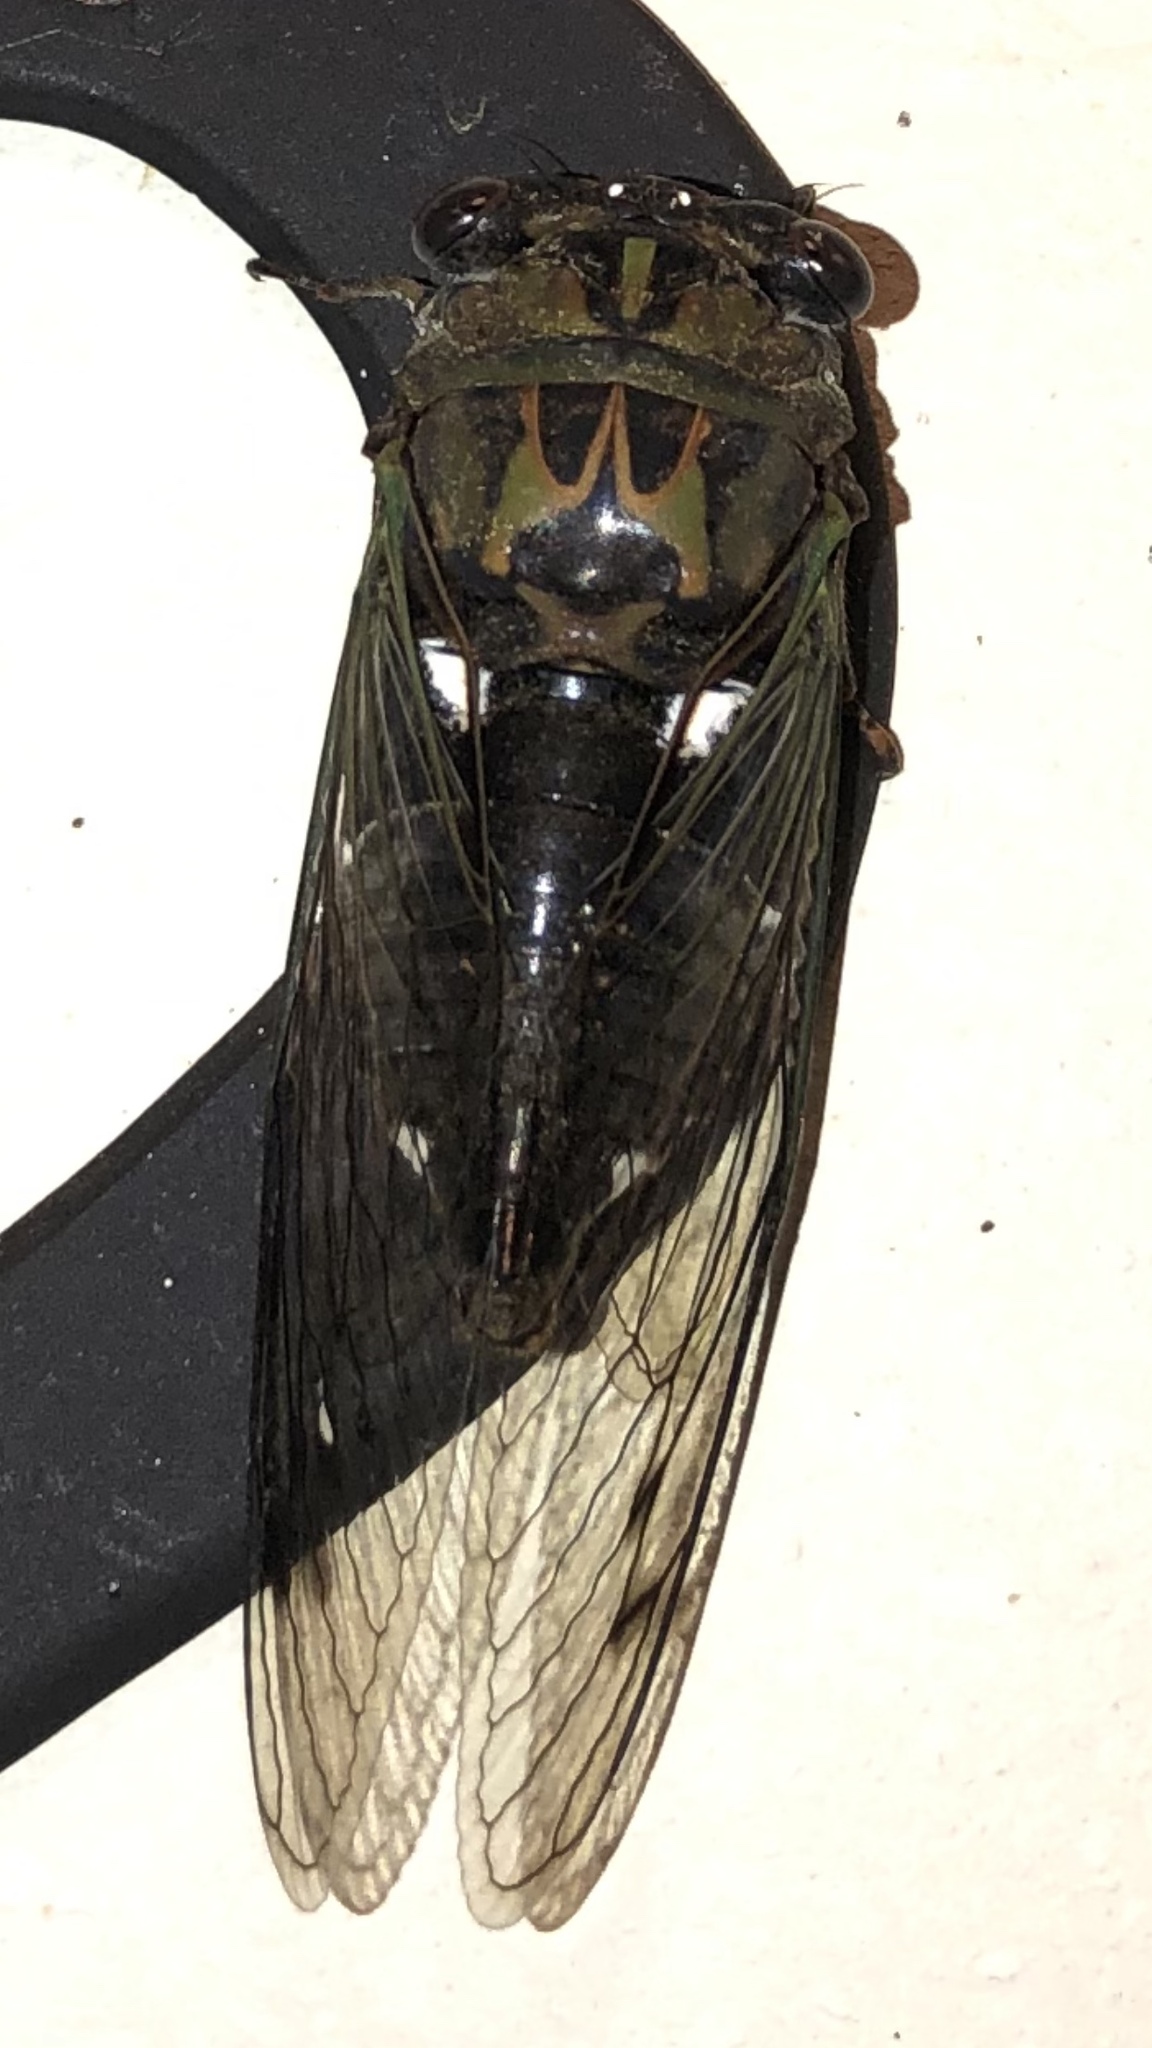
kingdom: Animalia
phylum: Arthropoda
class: Insecta
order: Hemiptera
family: Cicadidae
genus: Neotibicen
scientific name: Neotibicen pruinosus
